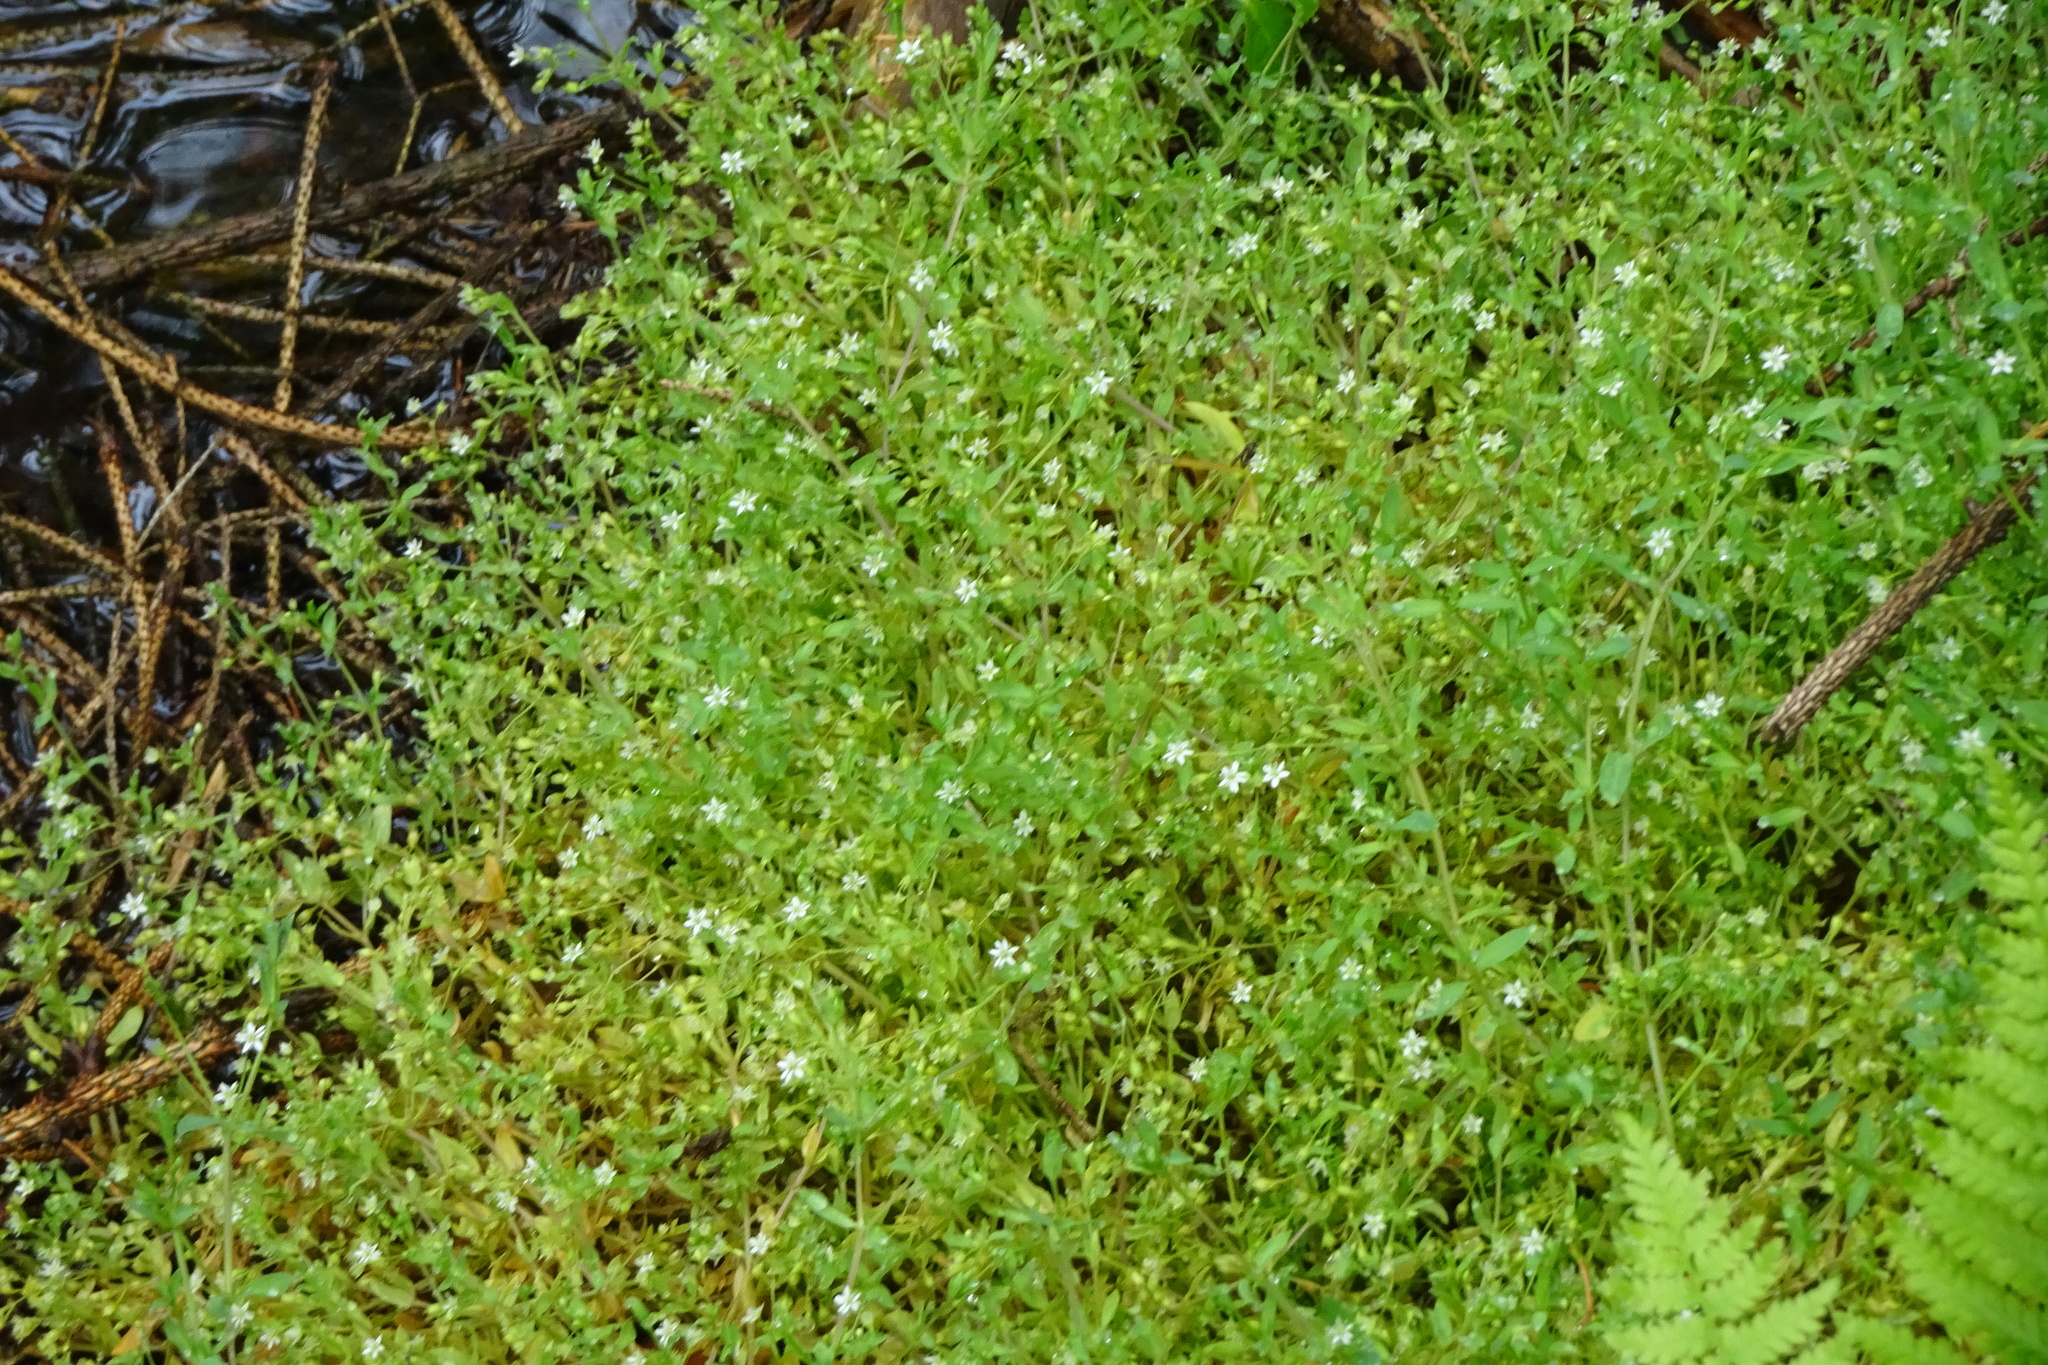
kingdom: Plantae
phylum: Tracheophyta
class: Magnoliopsida
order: Caryophyllales
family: Caryophyllaceae
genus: Stellaria
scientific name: Stellaria alsine
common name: Bog stitchwort
